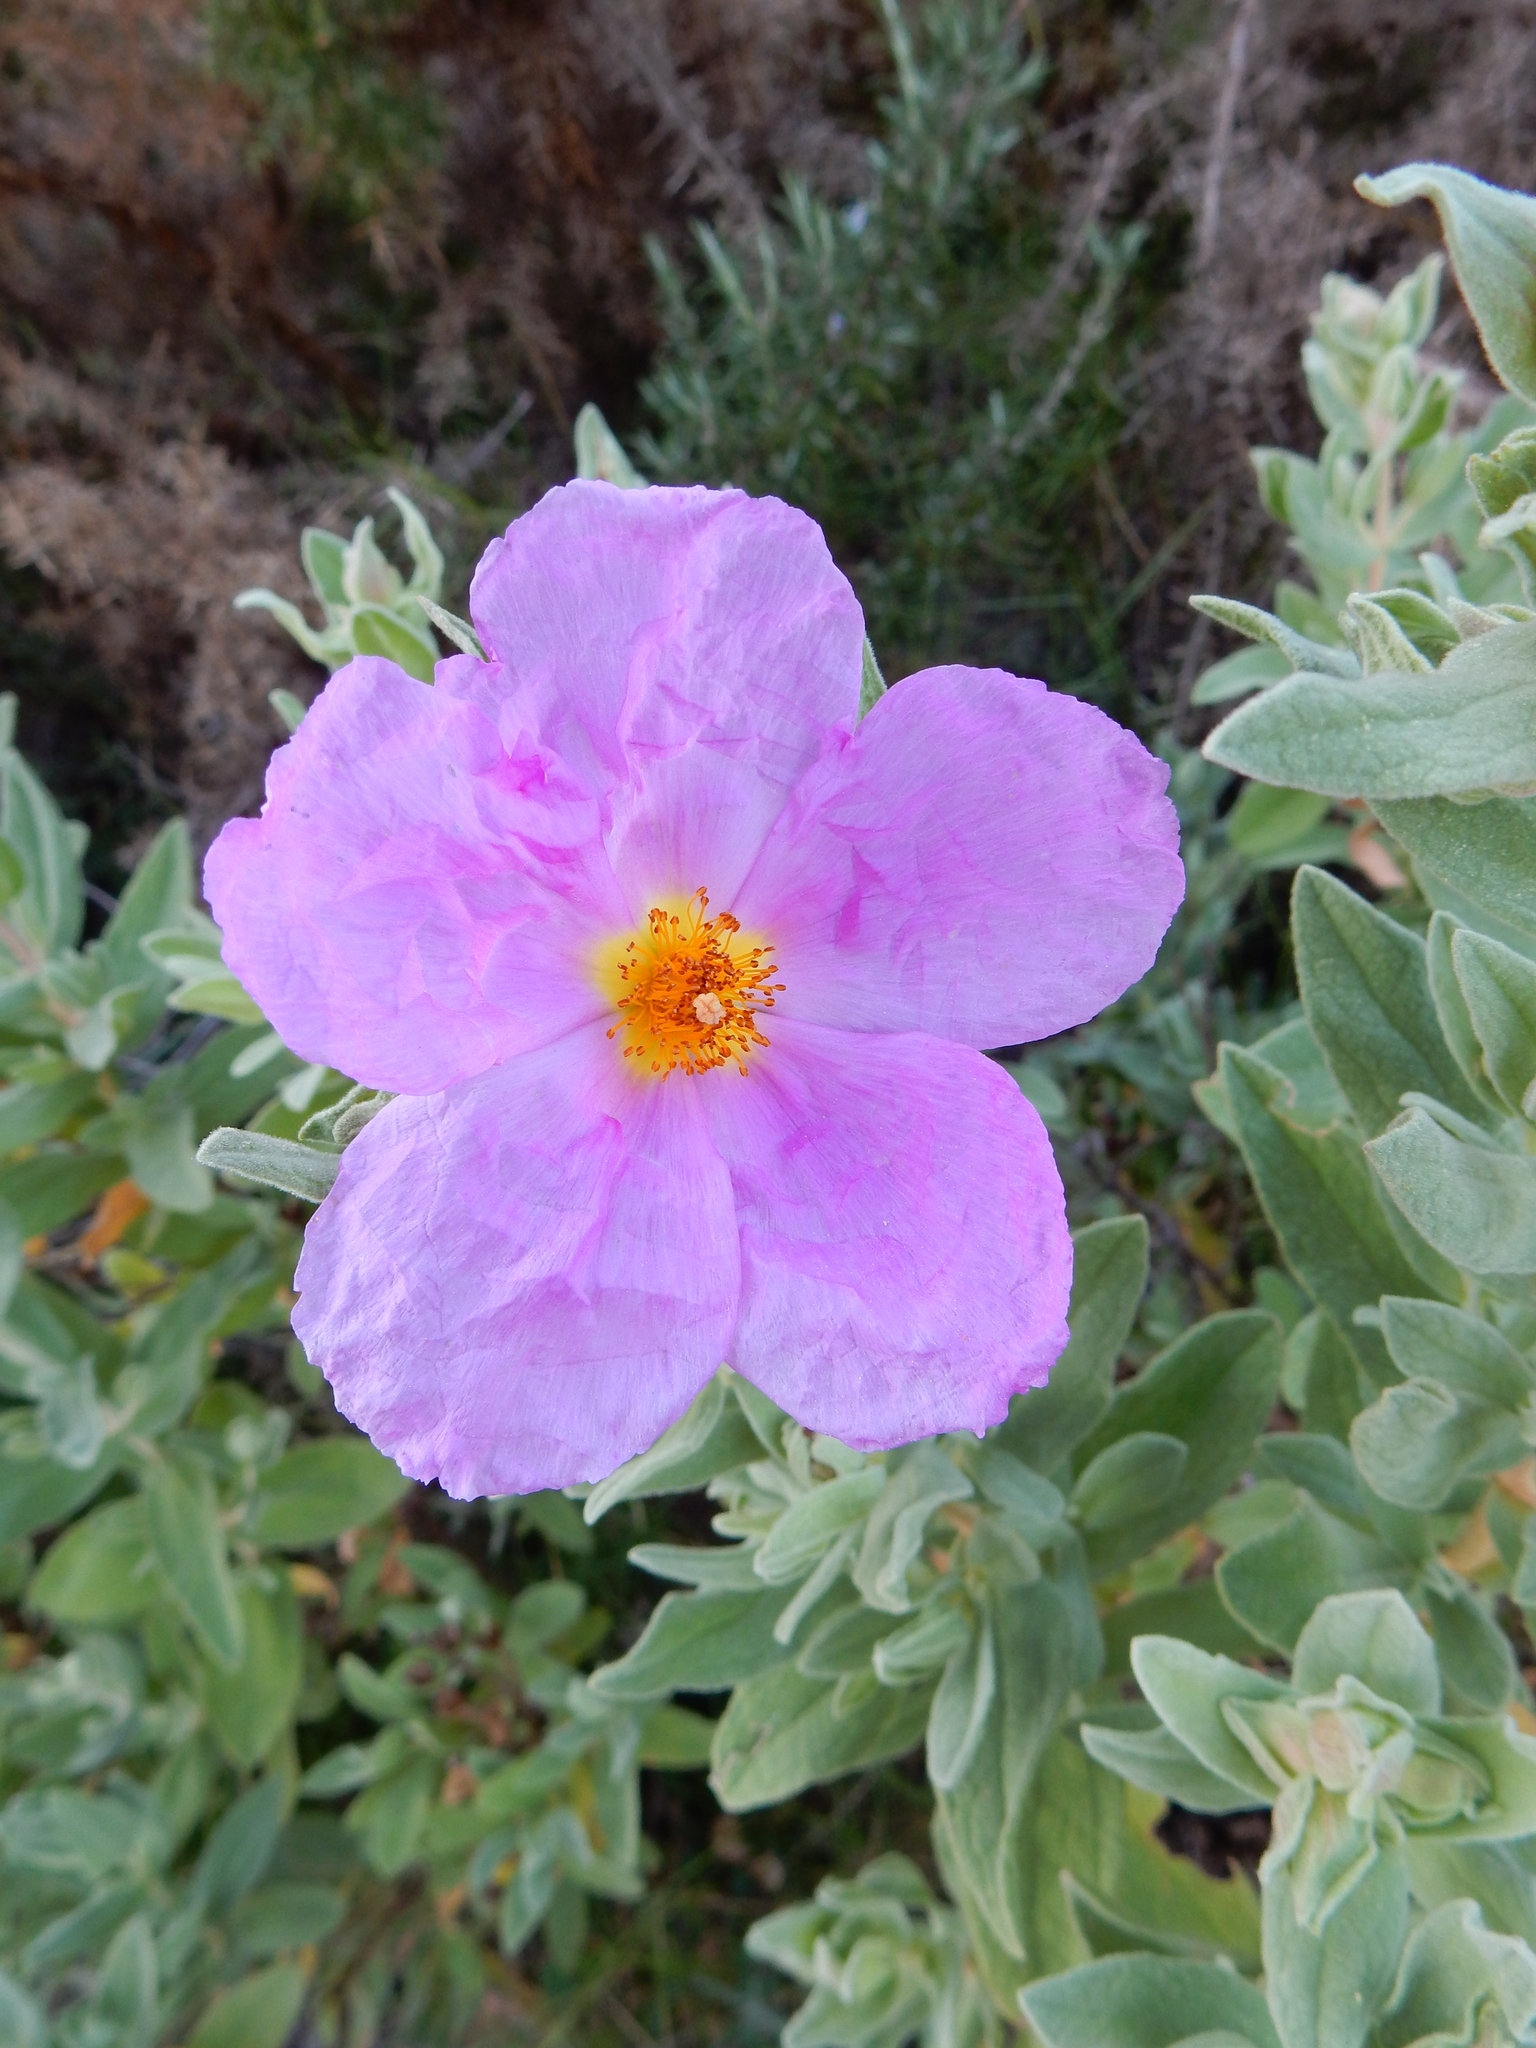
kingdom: Plantae
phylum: Tracheophyta
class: Magnoliopsida
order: Malvales
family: Cistaceae
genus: Cistus
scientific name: Cistus albidus
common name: White-leaf rock-rose
